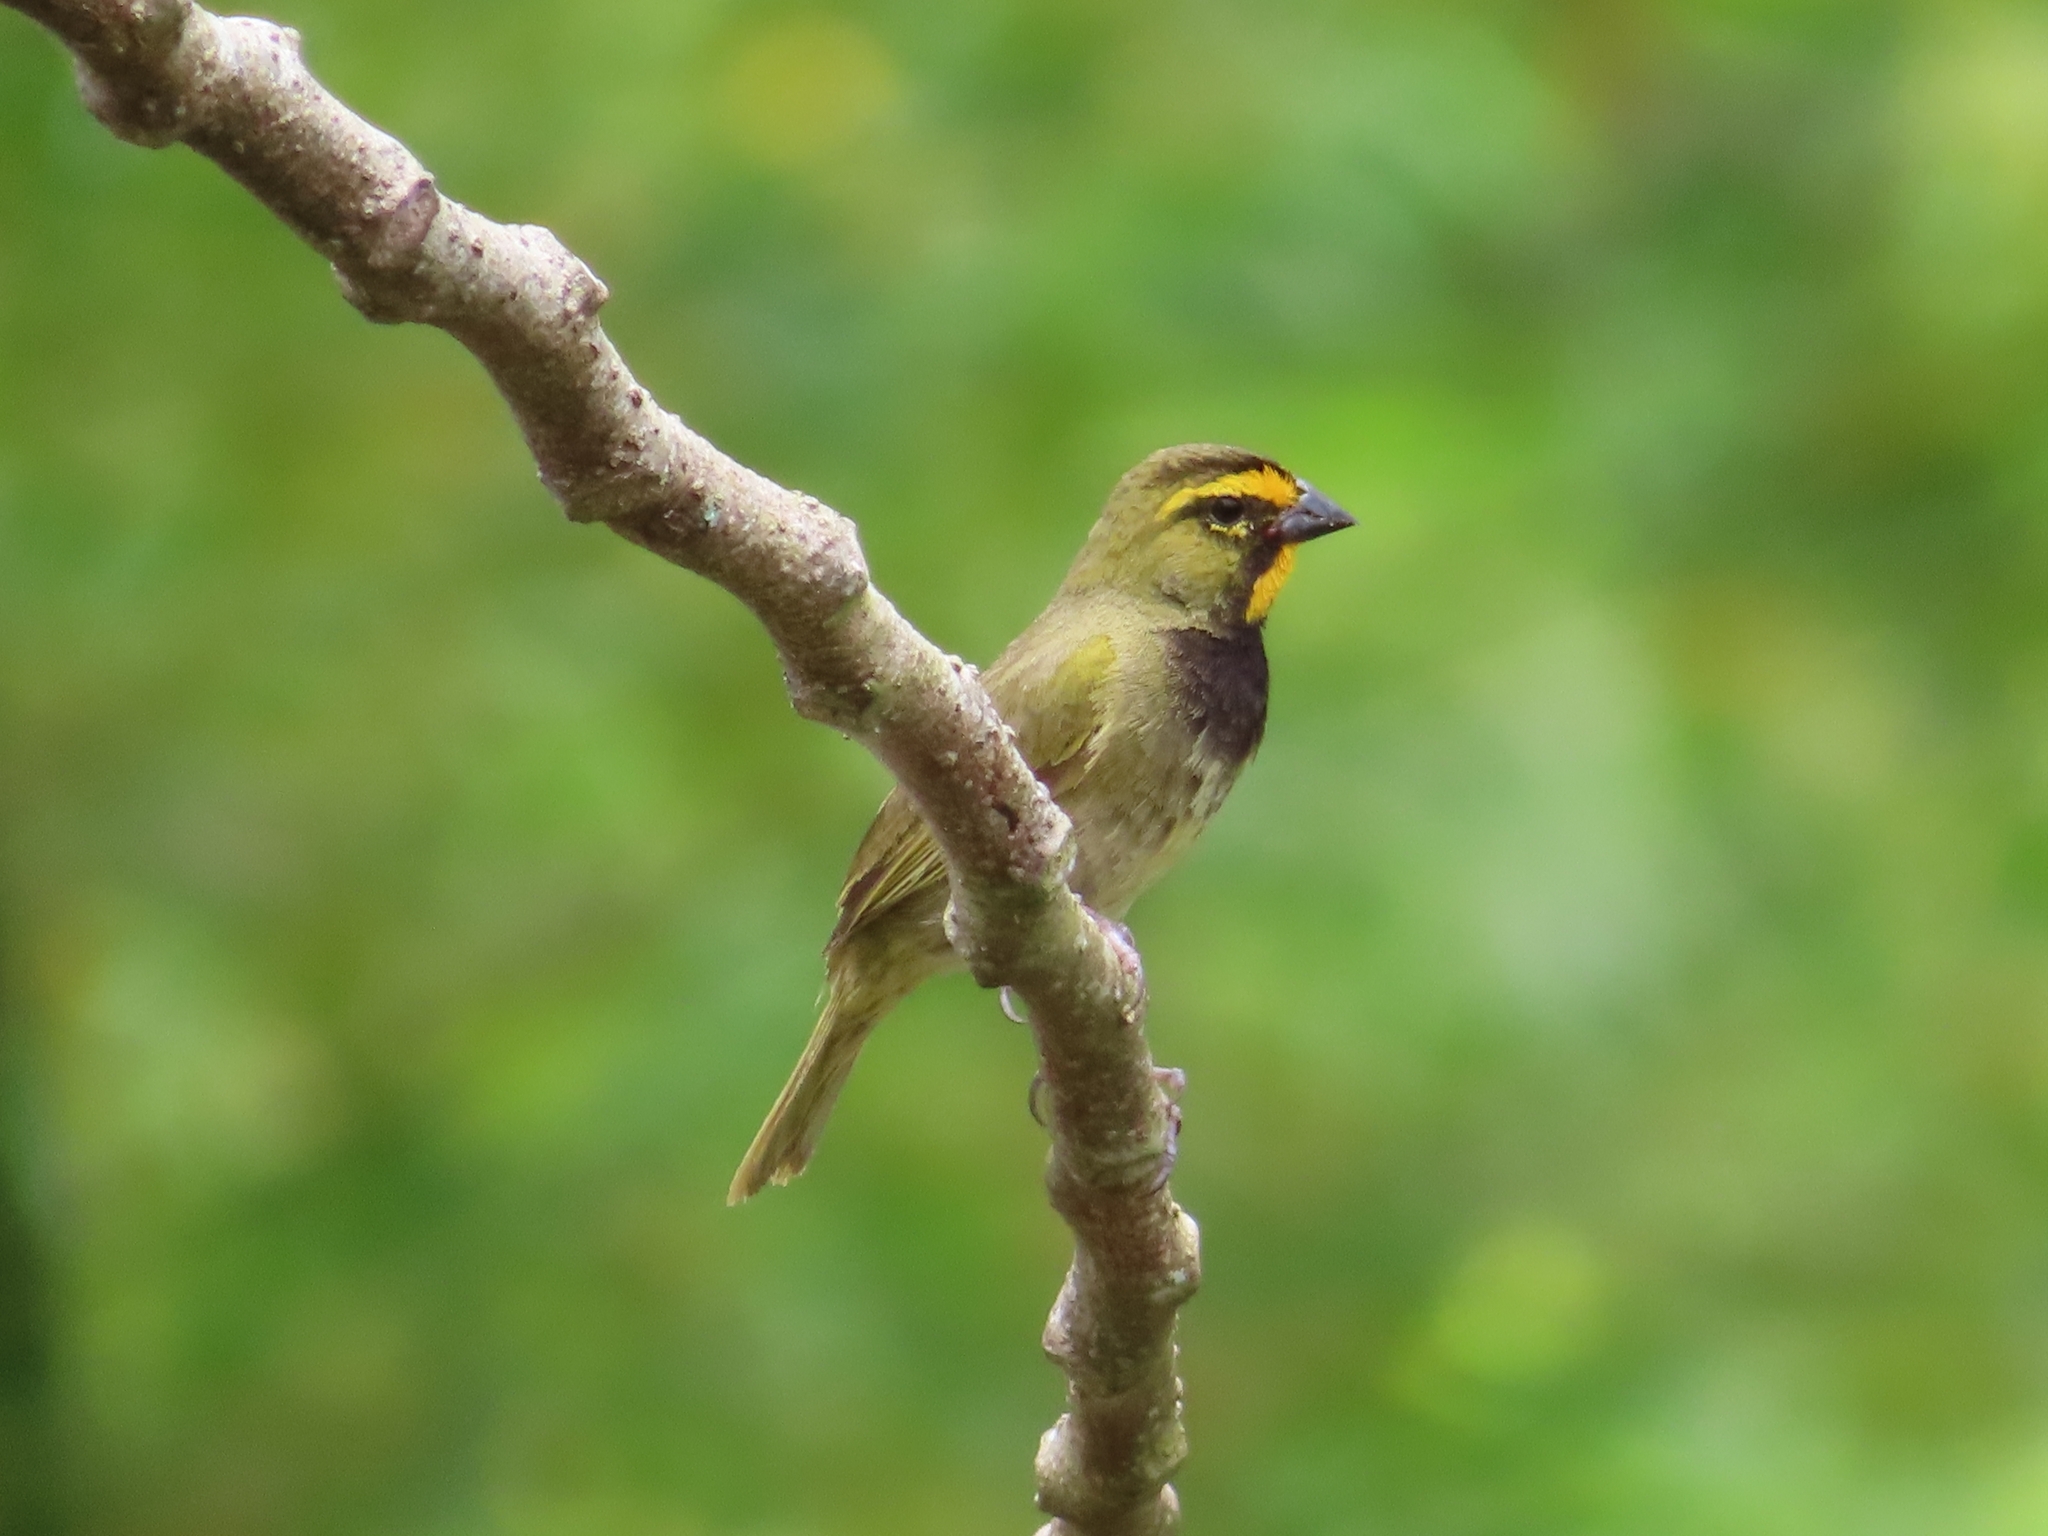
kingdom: Animalia
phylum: Chordata
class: Aves
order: Passeriformes
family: Thraupidae
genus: Tiaris
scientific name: Tiaris olivaceus
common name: Yellow-faced grassquit
